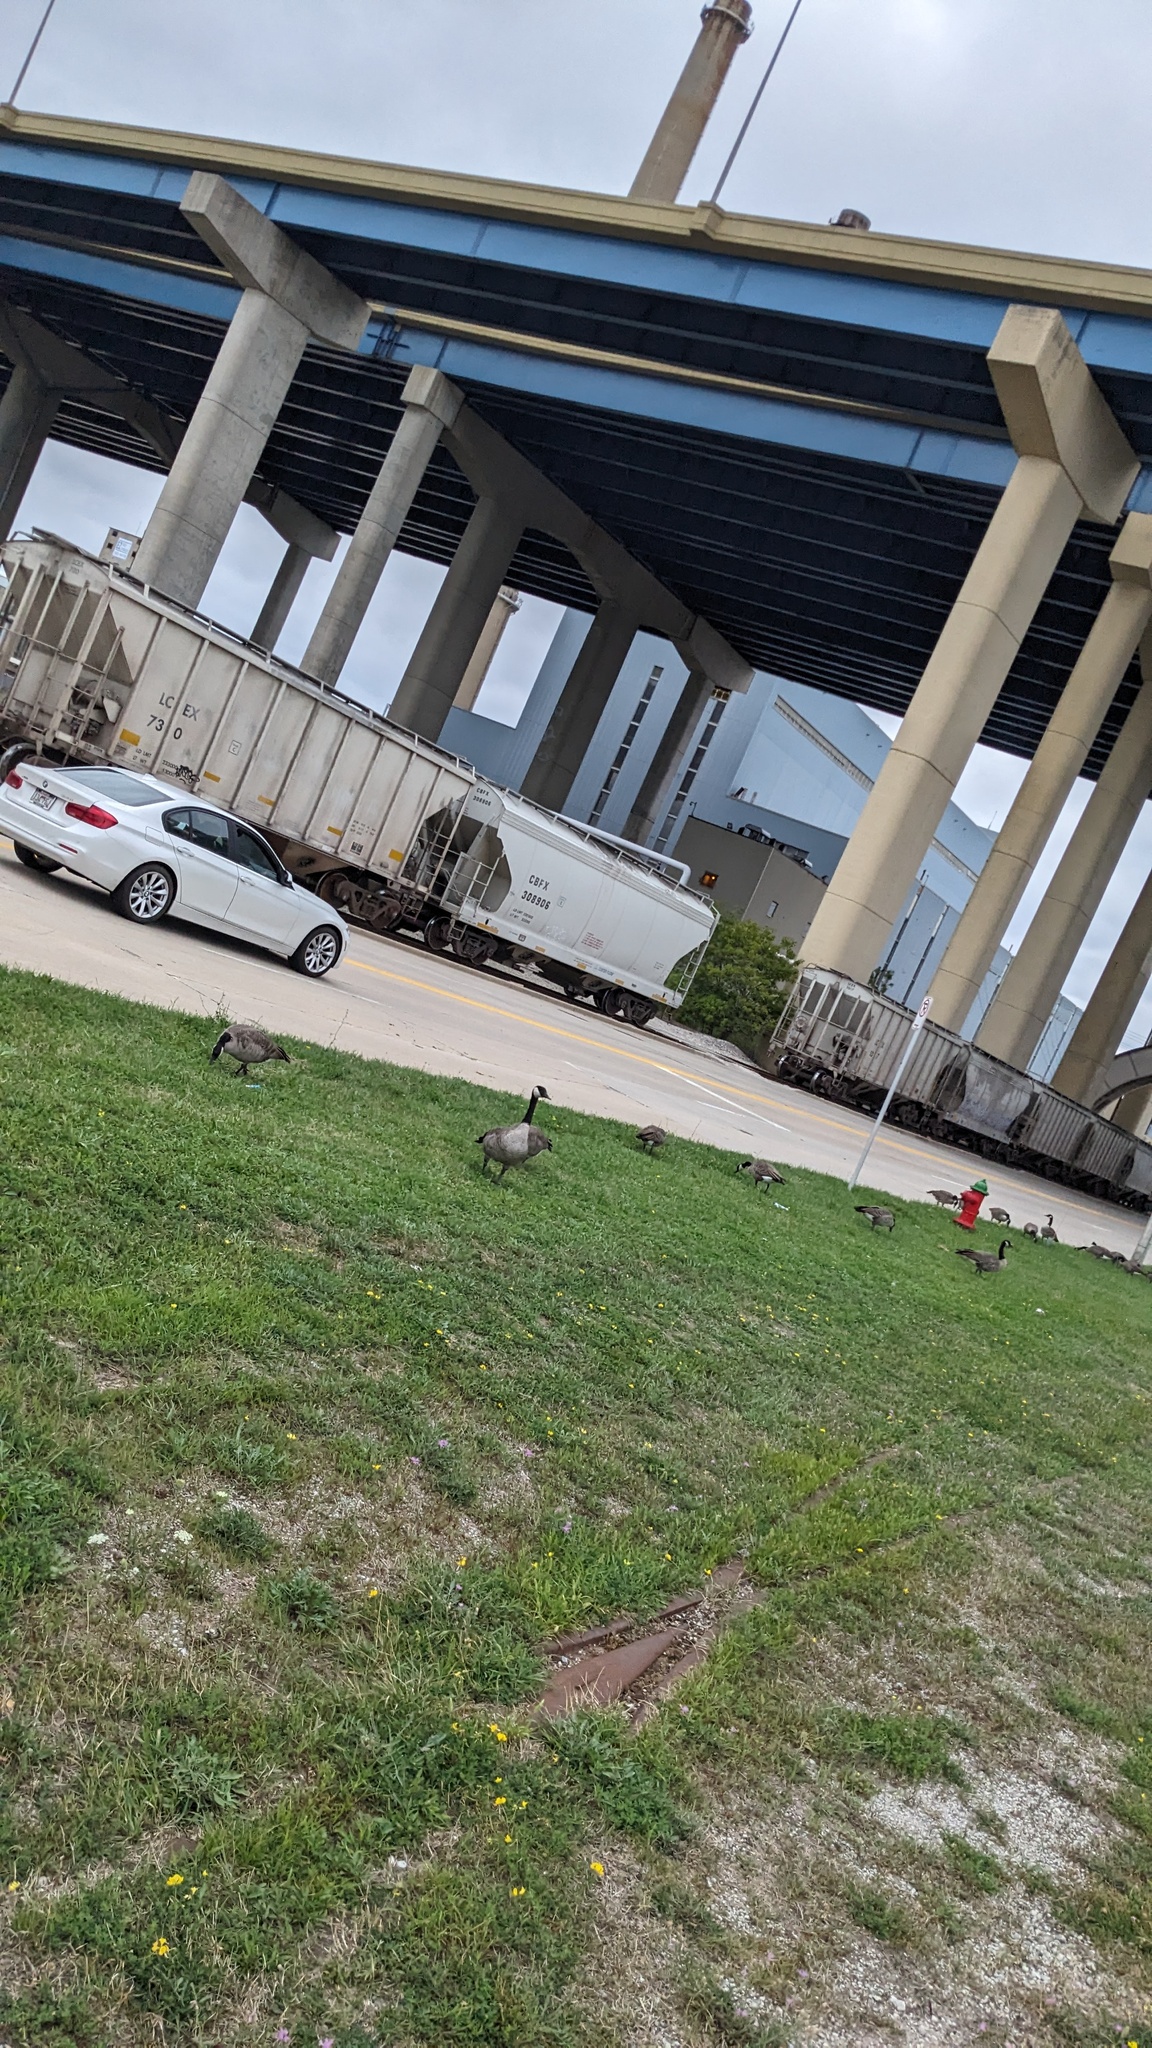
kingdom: Animalia
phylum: Chordata
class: Aves
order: Anseriformes
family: Anatidae
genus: Branta
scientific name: Branta canadensis
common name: Canada goose
